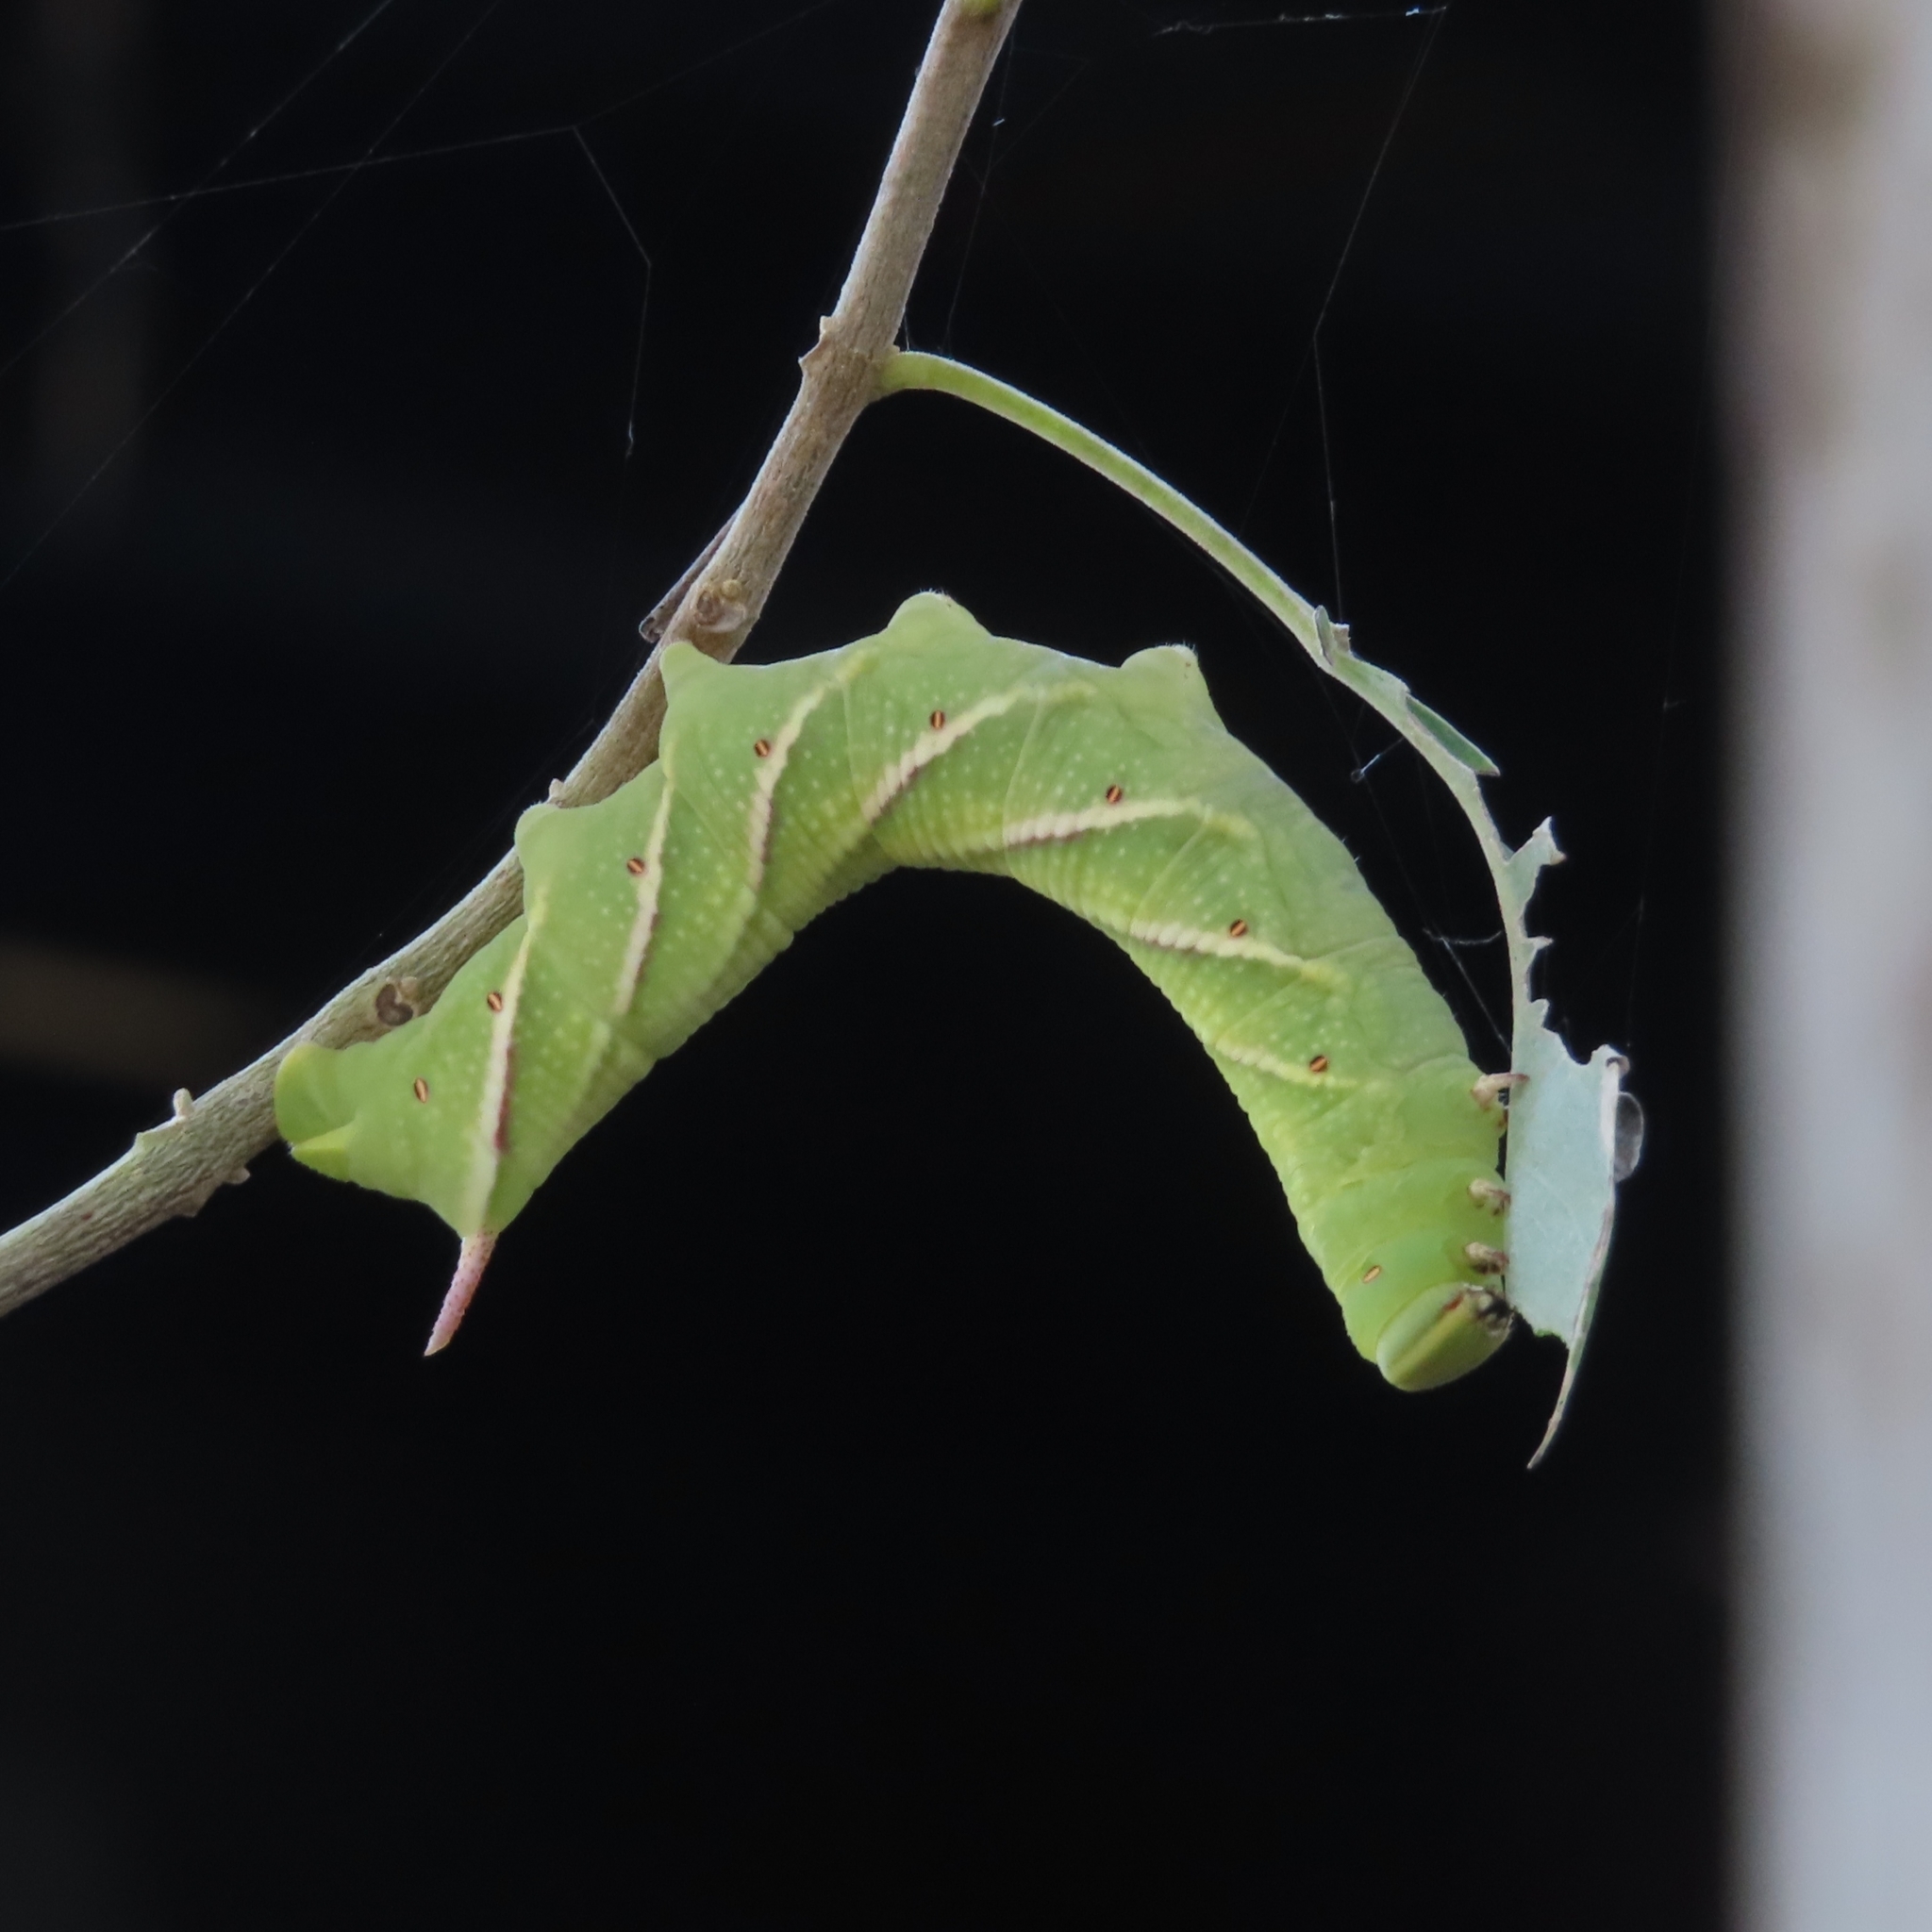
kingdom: Animalia
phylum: Arthropoda
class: Insecta
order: Lepidoptera
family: Sphingidae
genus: Agrius
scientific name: Agrius cingulata
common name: Pink-spotted hawkmoth
